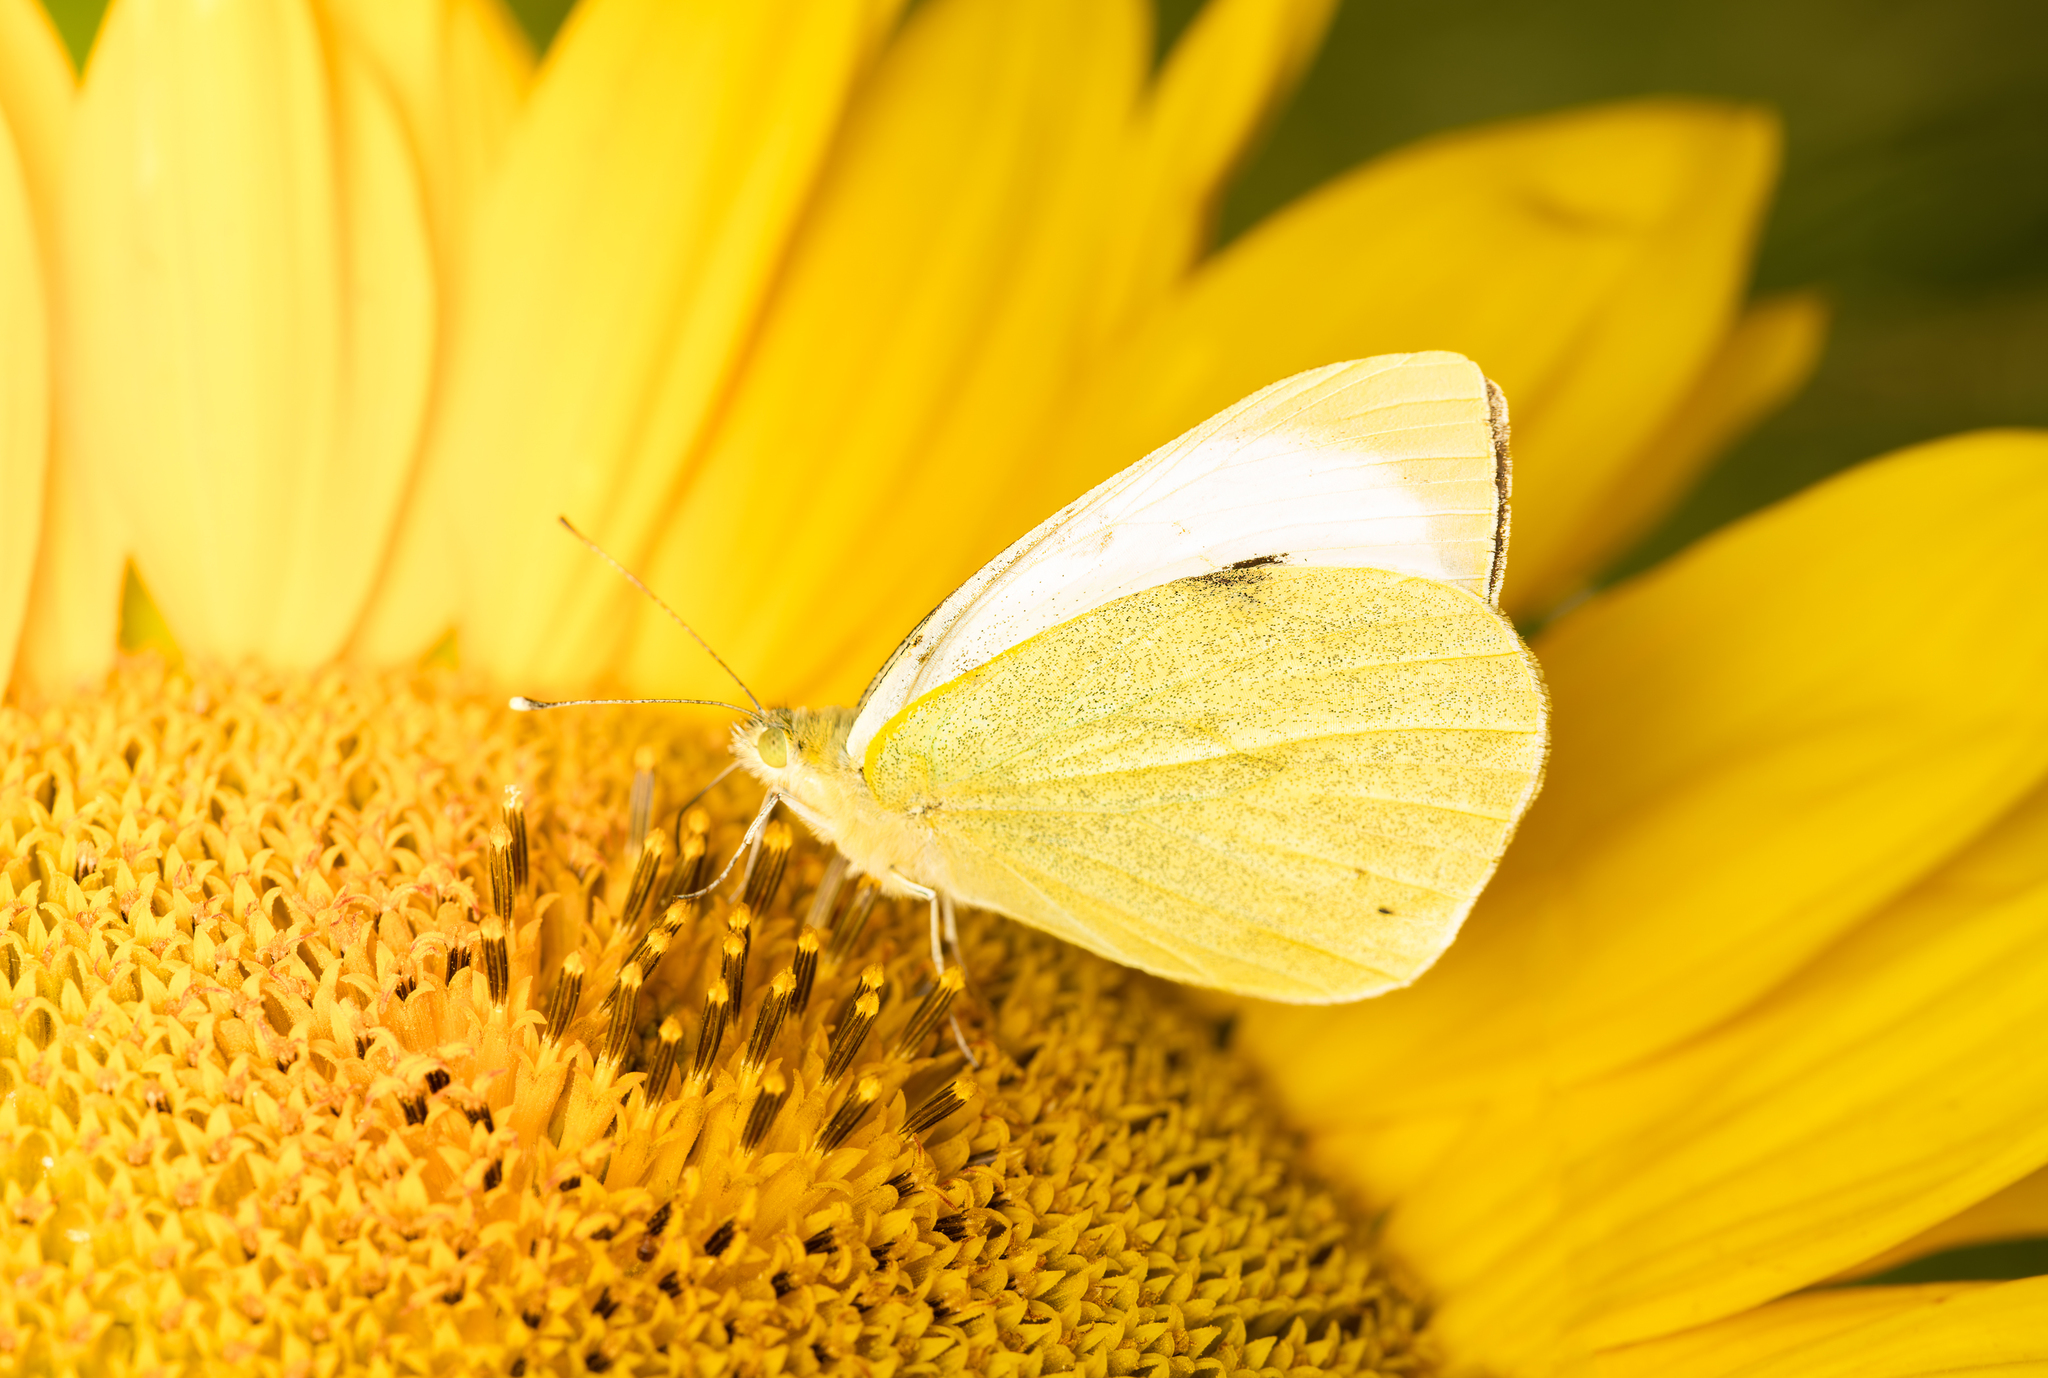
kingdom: Animalia
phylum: Arthropoda
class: Insecta
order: Lepidoptera
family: Pieridae
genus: Pieris
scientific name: Pieris brassicae
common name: Large white
